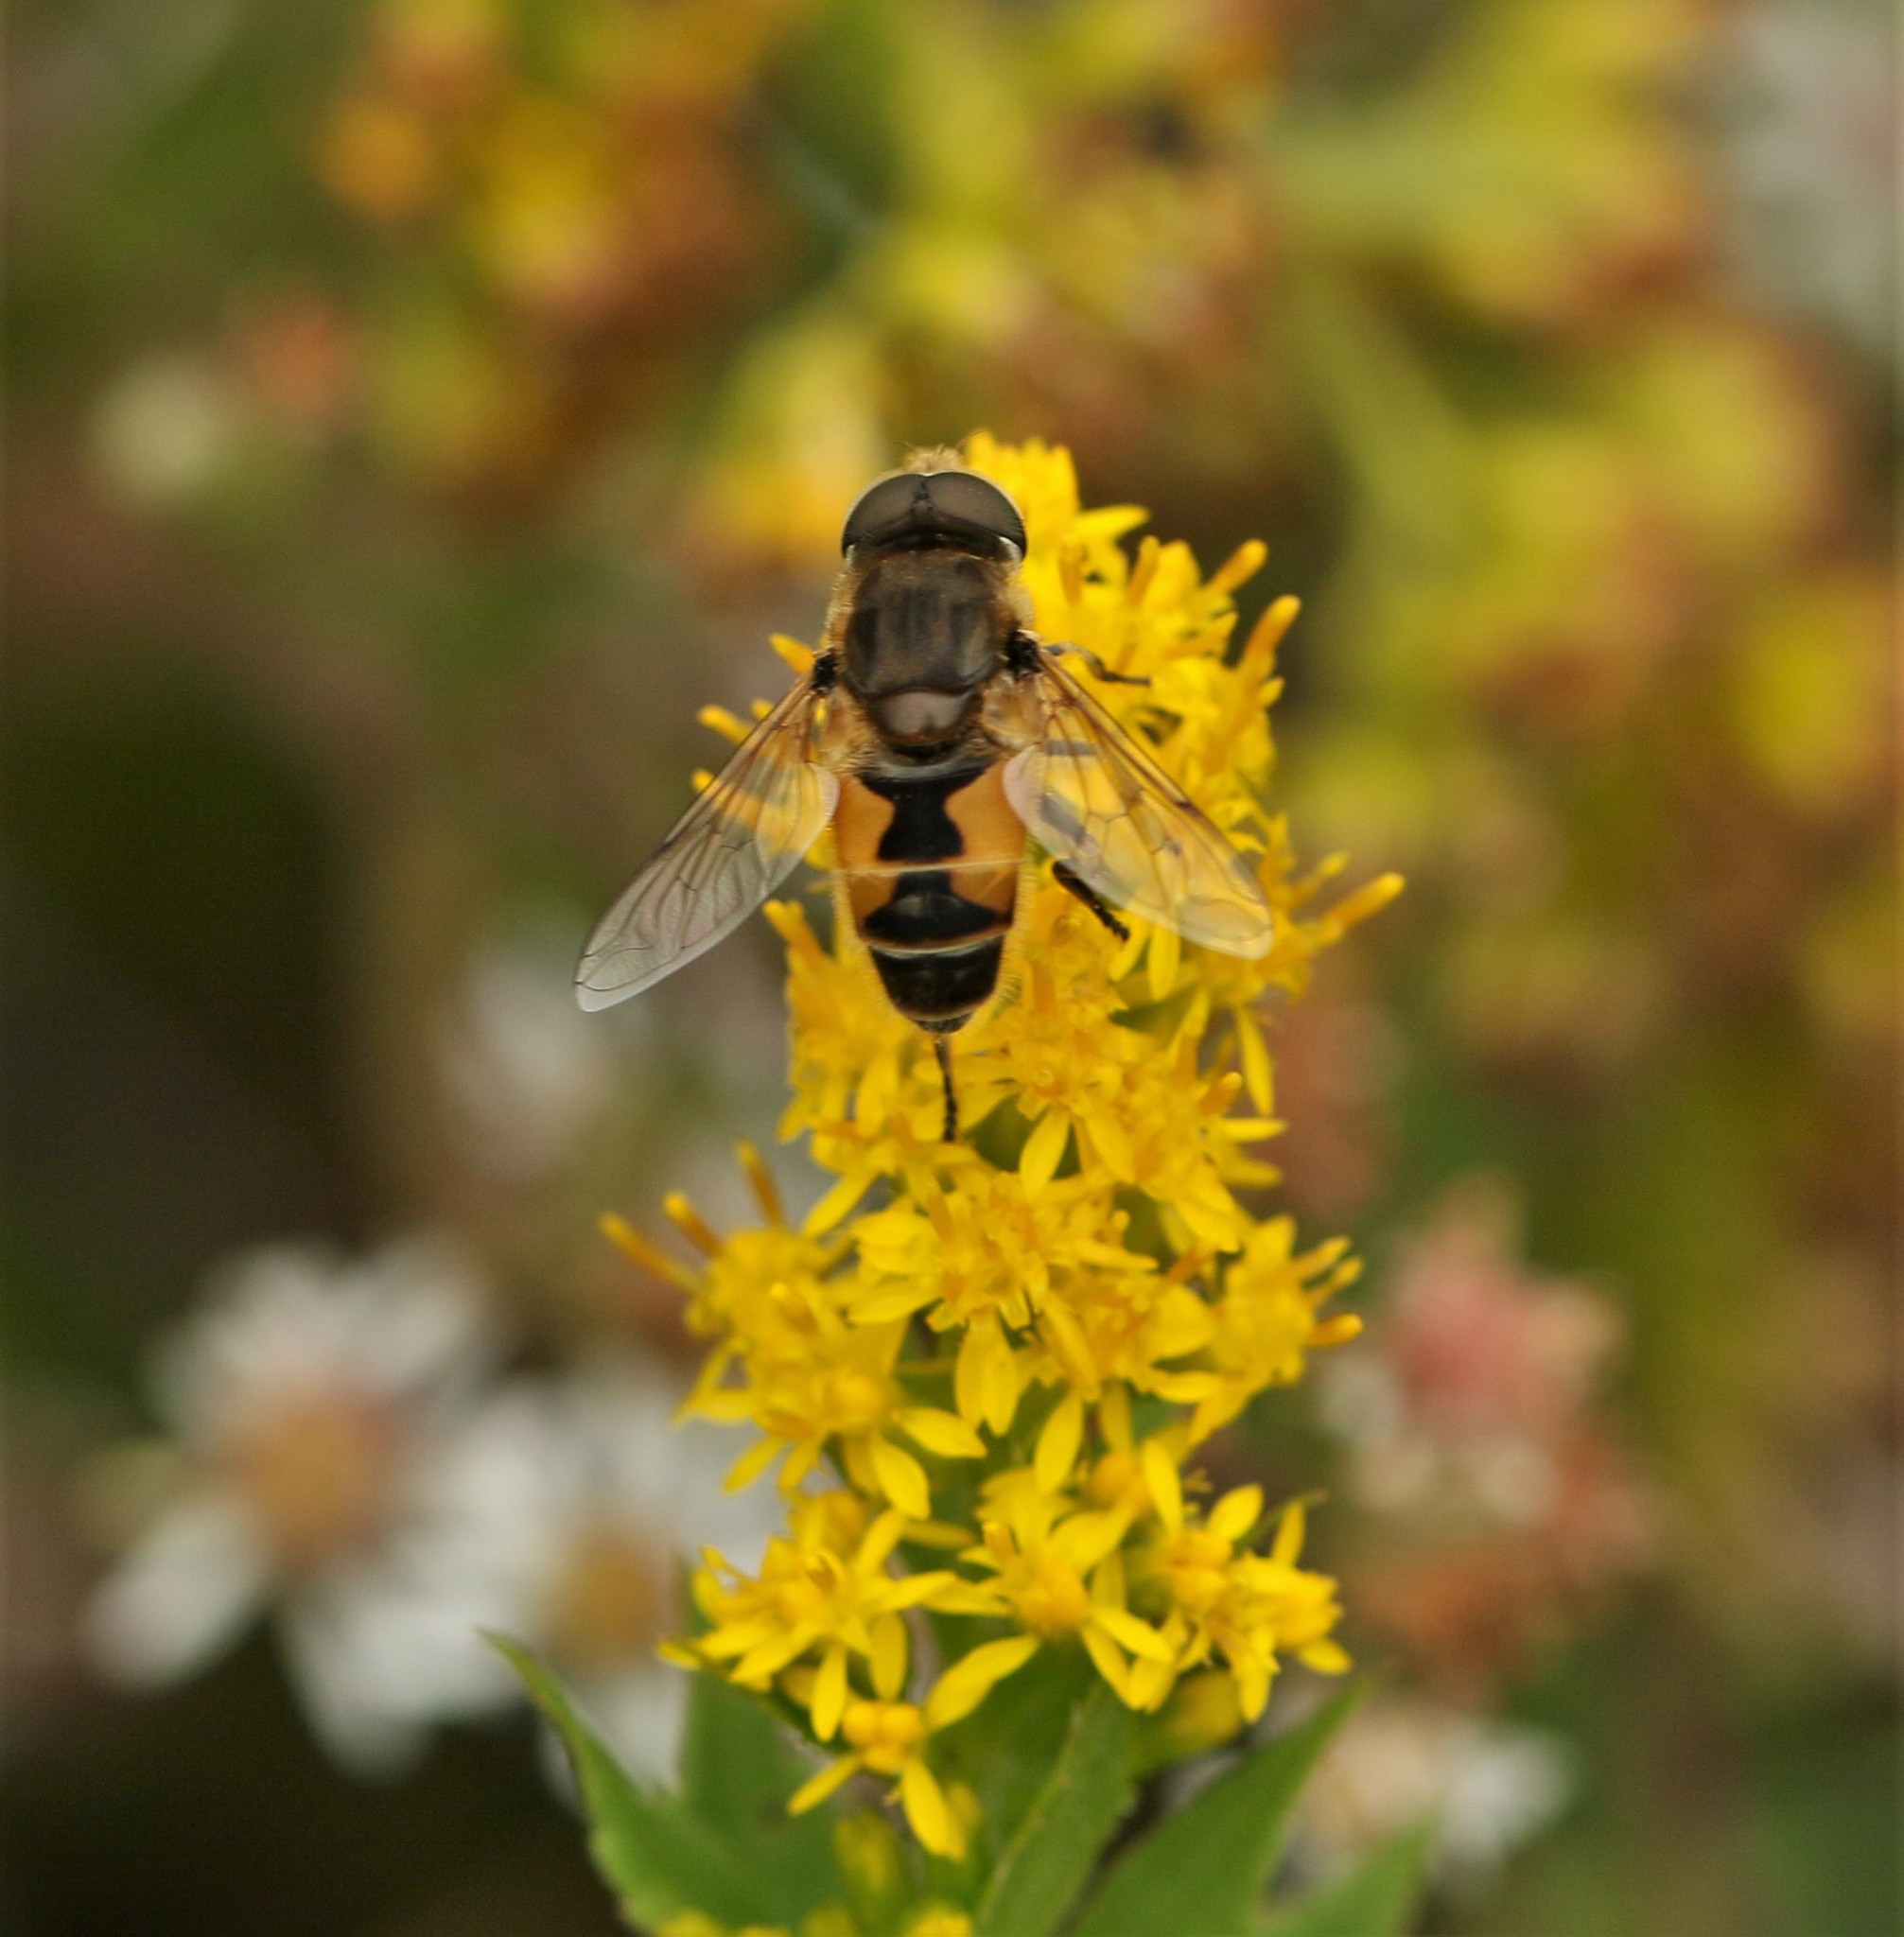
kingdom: Animalia
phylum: Arthropoda
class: Insecta
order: Diptera
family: Syrphidae
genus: Eristalis
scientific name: Eristalis arbustorum
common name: Hover fly
